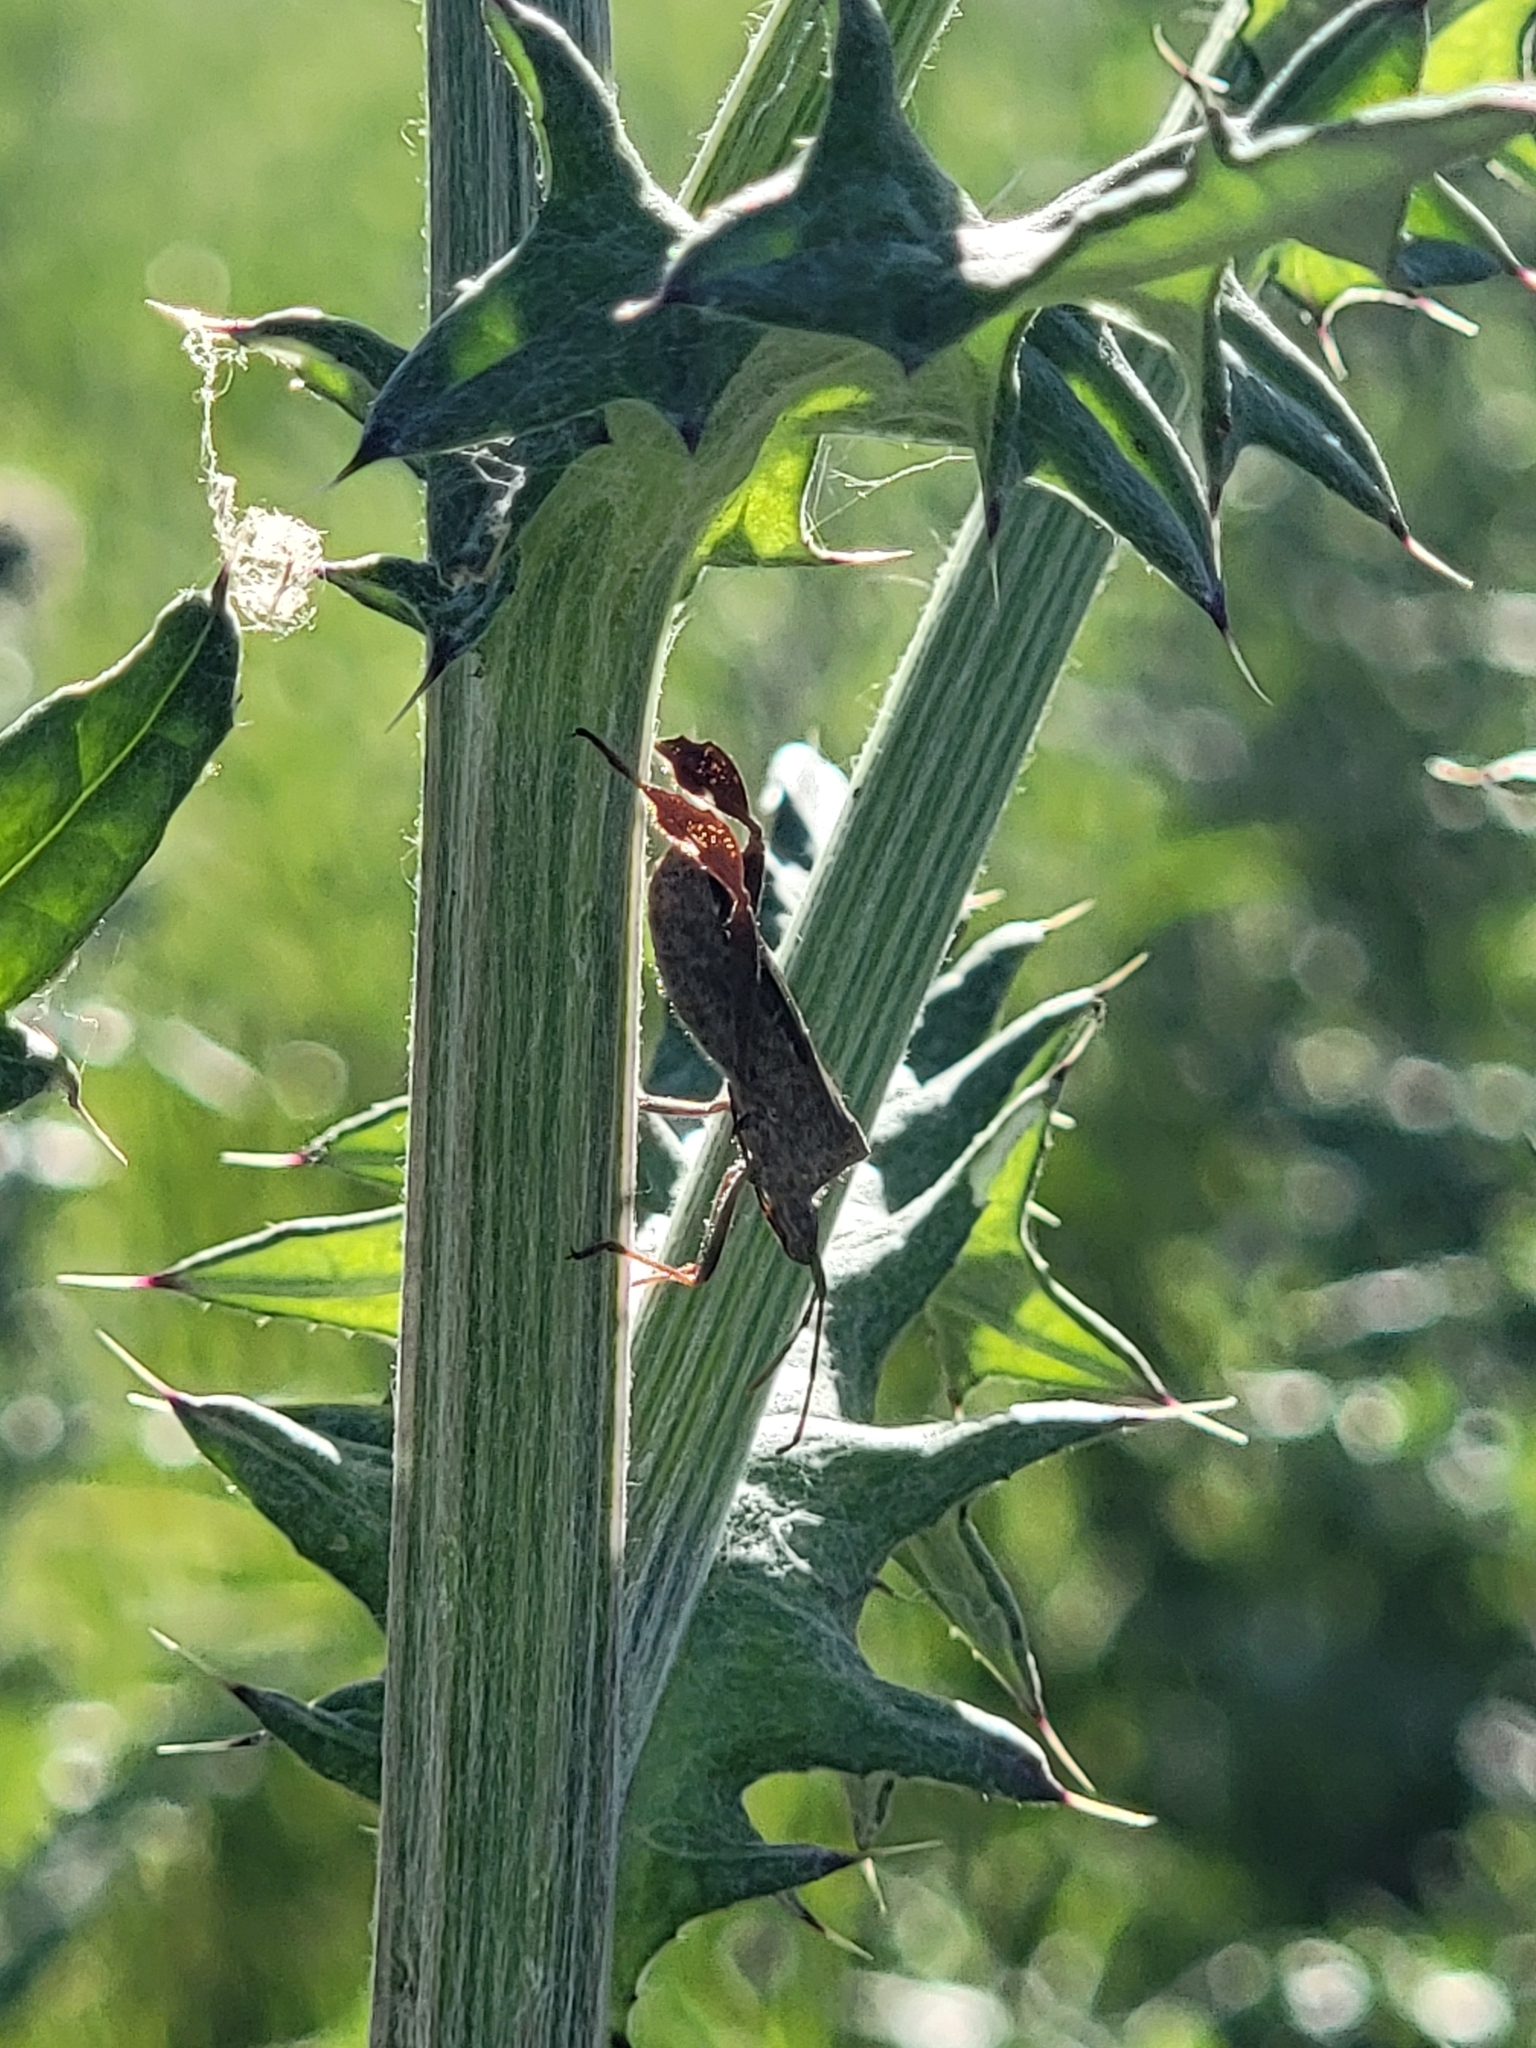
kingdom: Animalia
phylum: Arthropoda
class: Insecta
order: Hemiptera
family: Coreidae
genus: Leptoglossus
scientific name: Leptoglossus phyllopus
